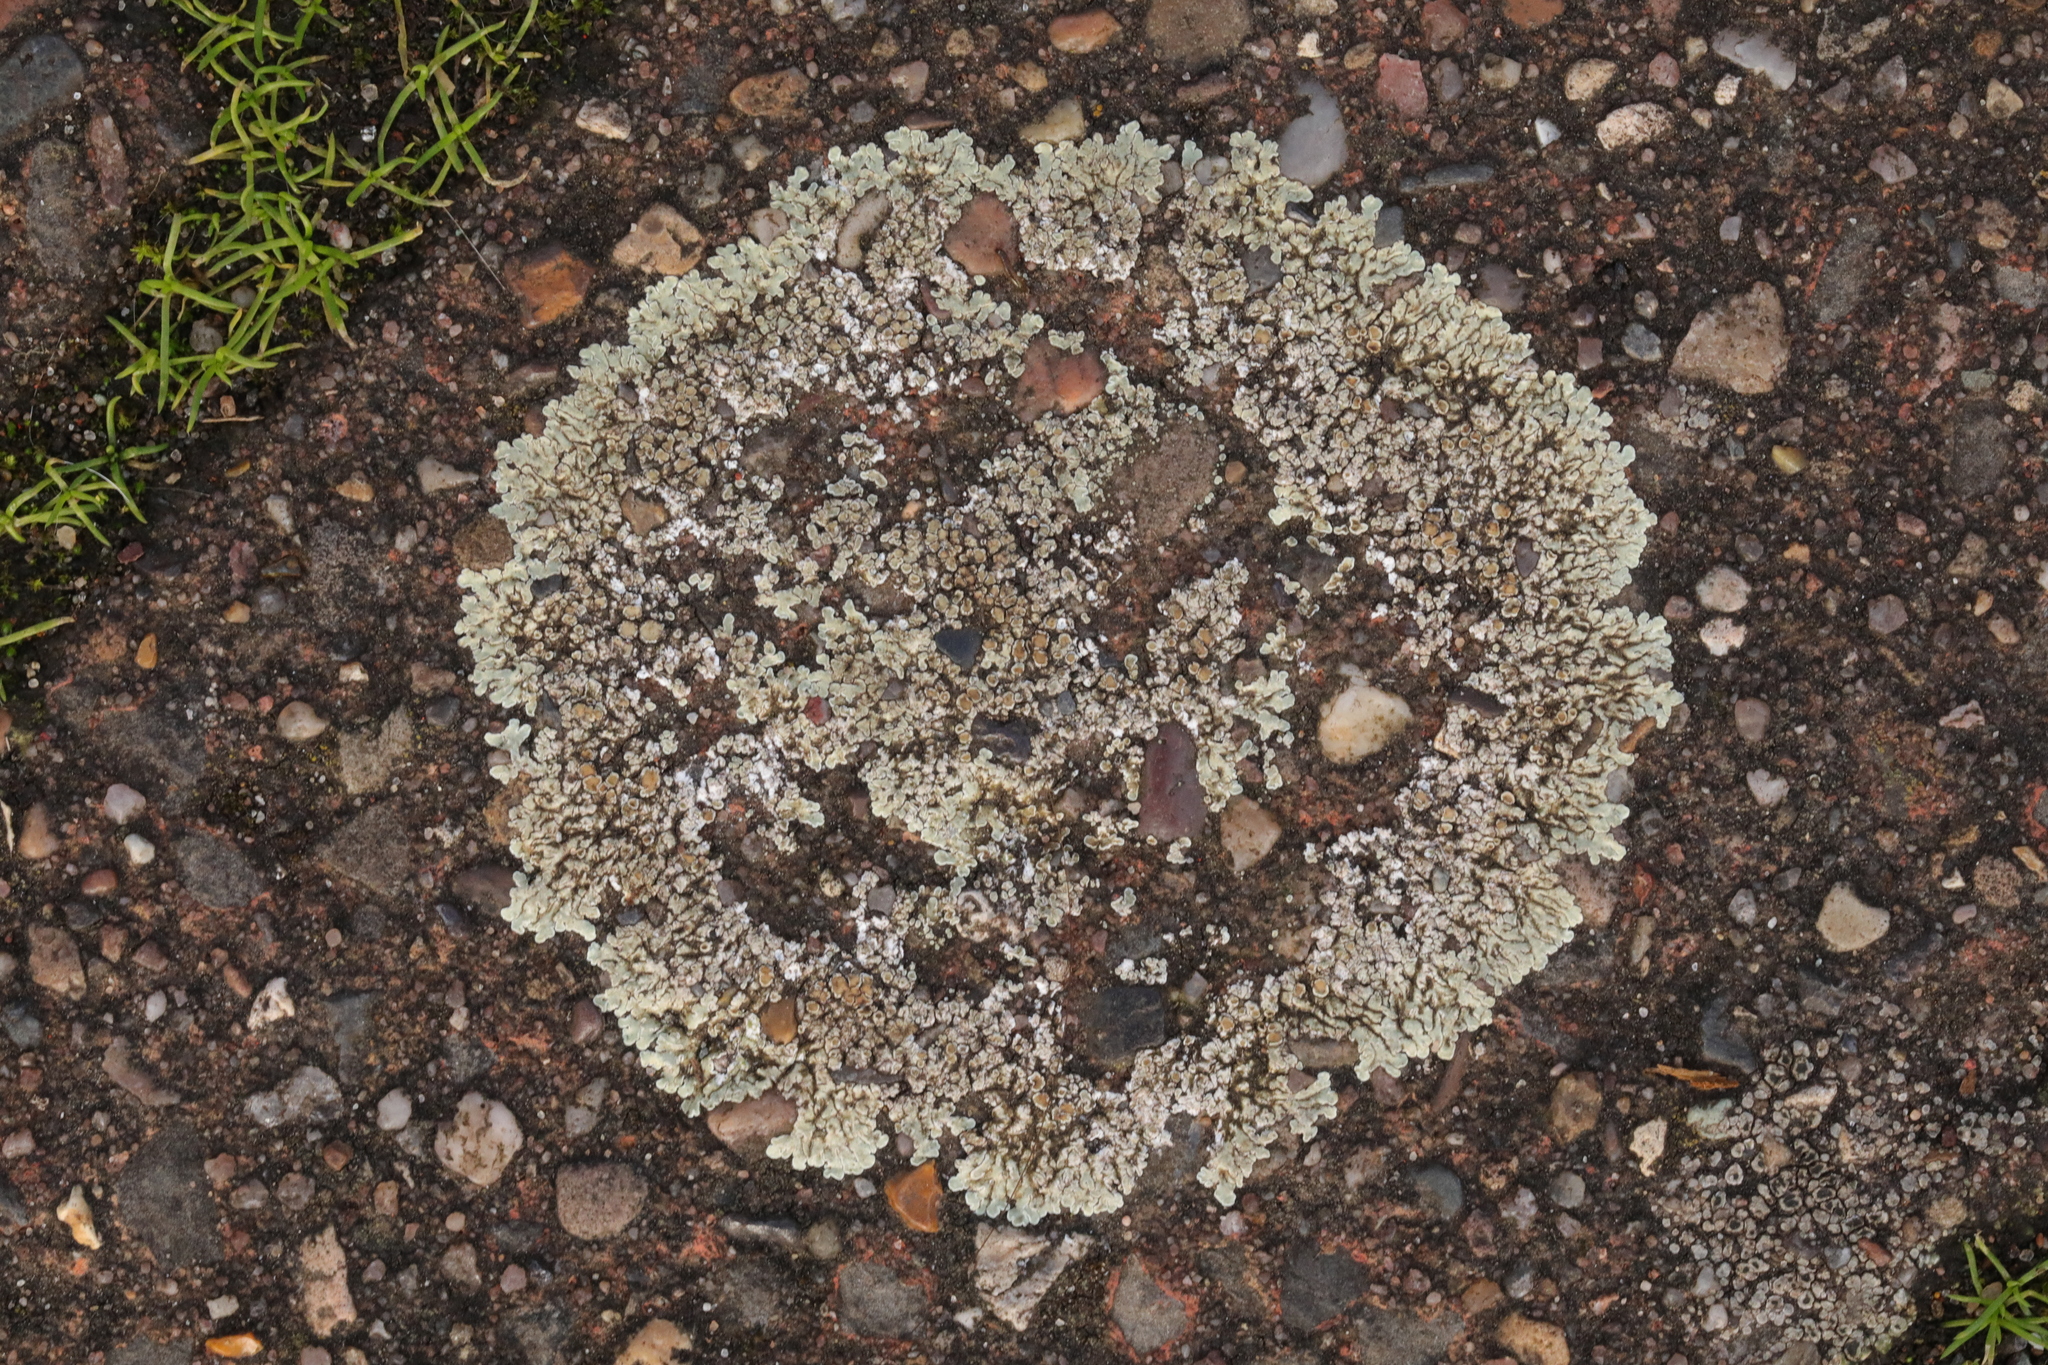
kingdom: Fungi
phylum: Ascomycota
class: Lecanoromycetes
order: Lecanorales
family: Lecanoraceae
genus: Protoparmeliopsis
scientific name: Protoparmeliopsis muralis
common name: Stonewall rim lichen
